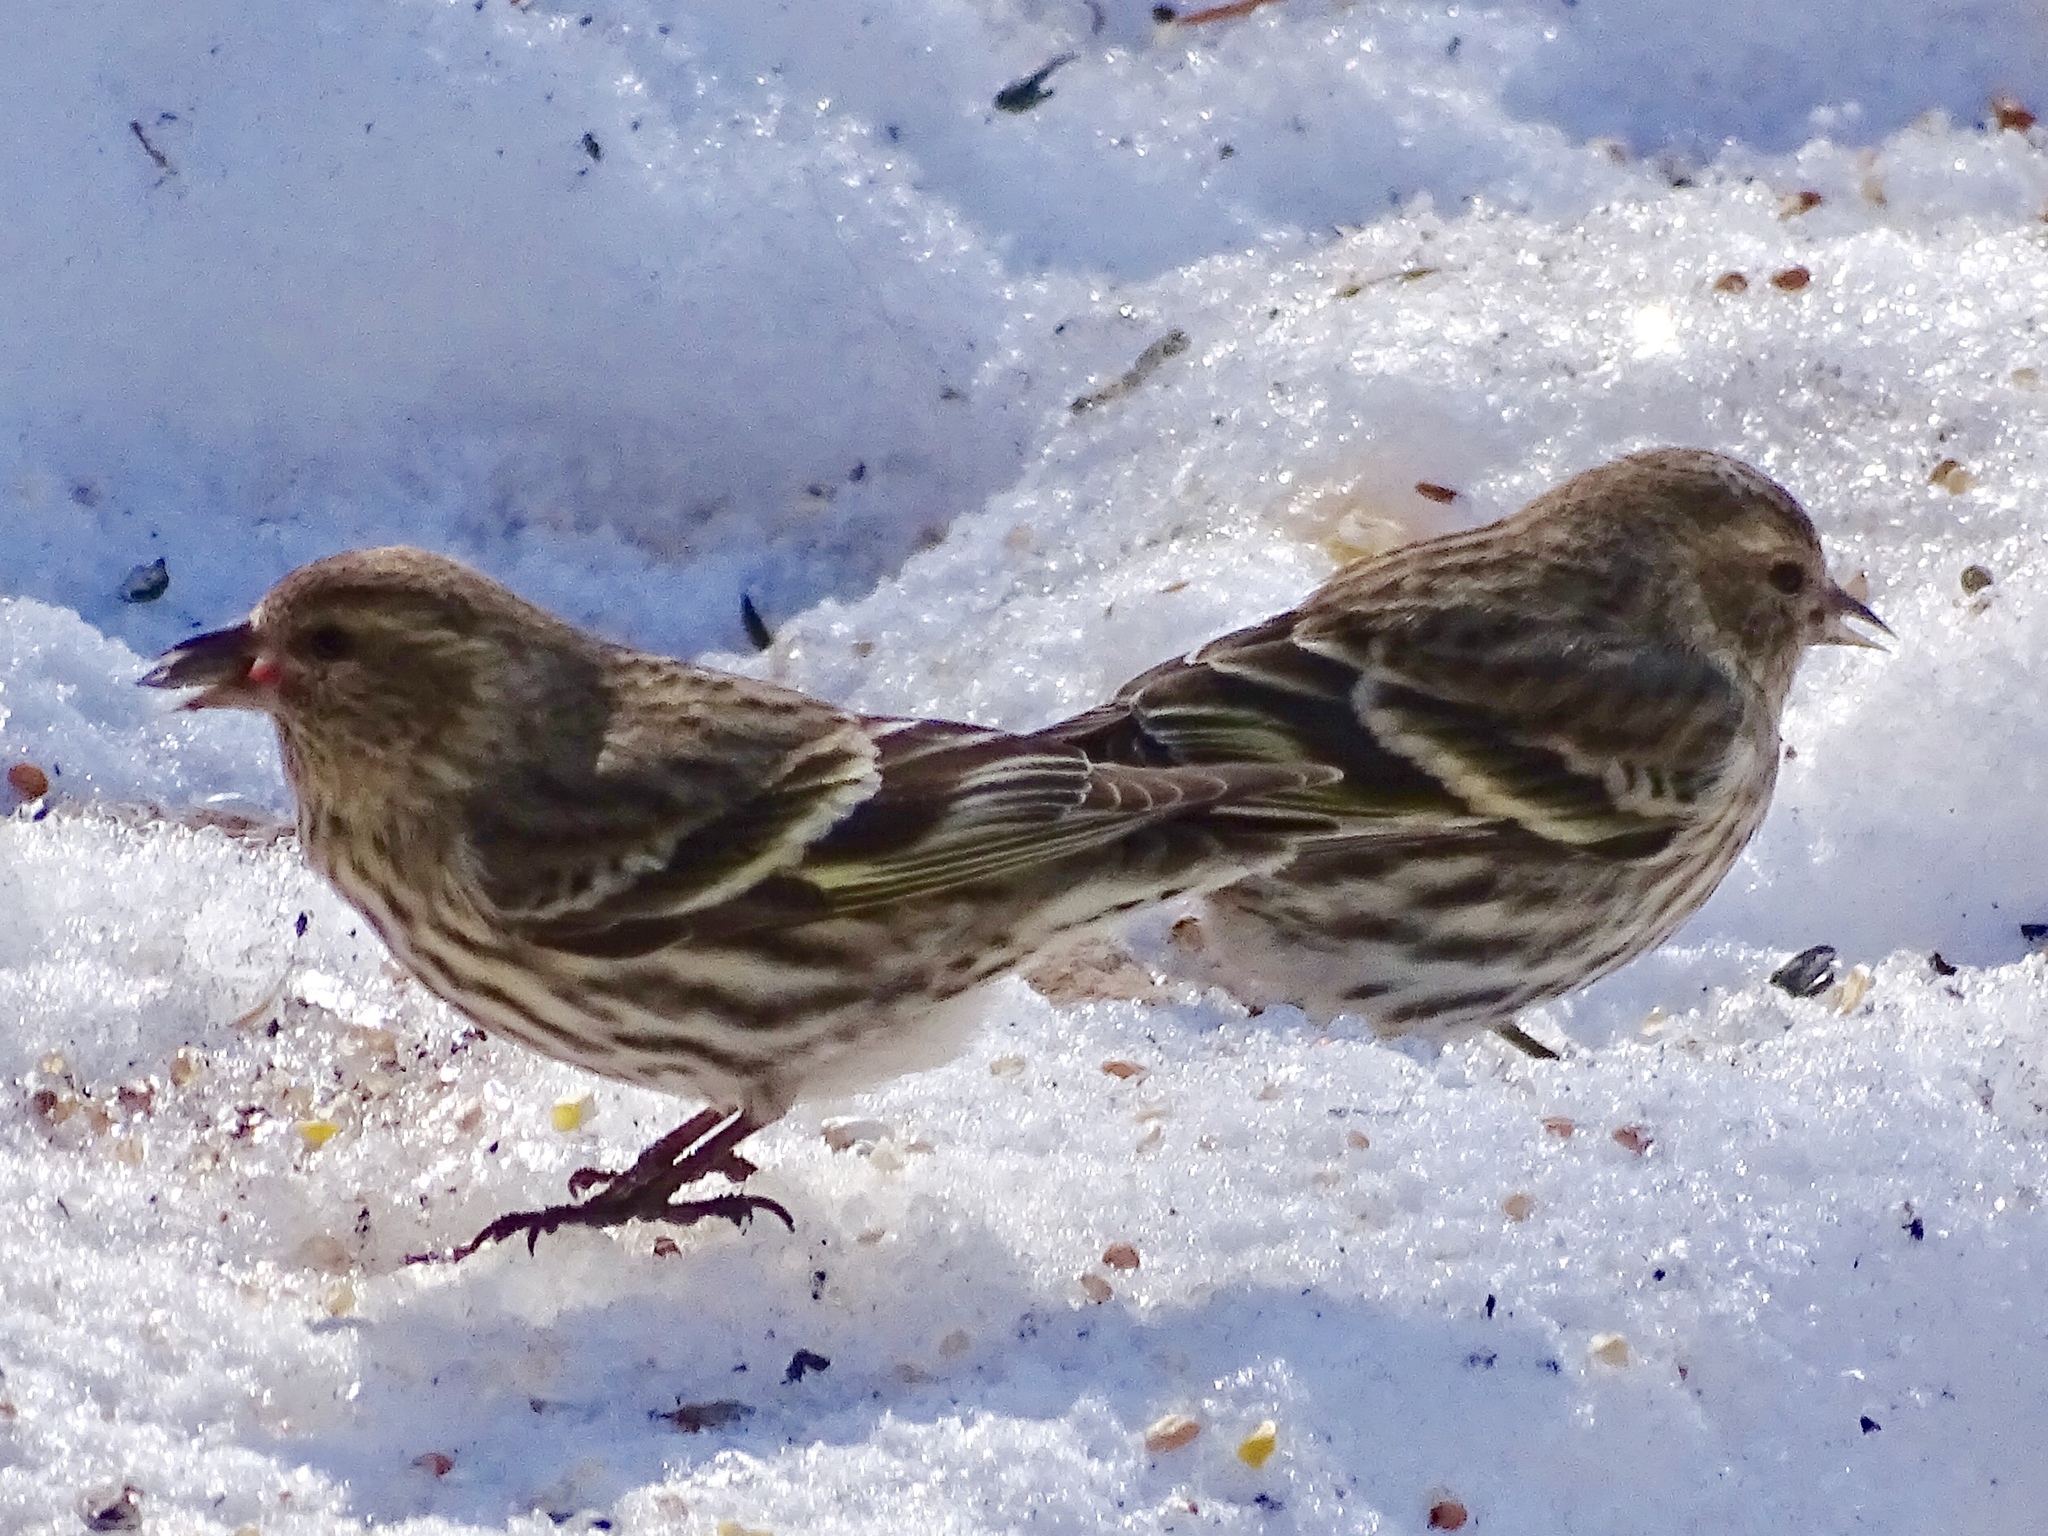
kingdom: Animalia
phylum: Chordata
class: Aves
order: Passeriformes
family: Fringillidae
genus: Spinus
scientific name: Spinus pinus
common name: Pine siskin
